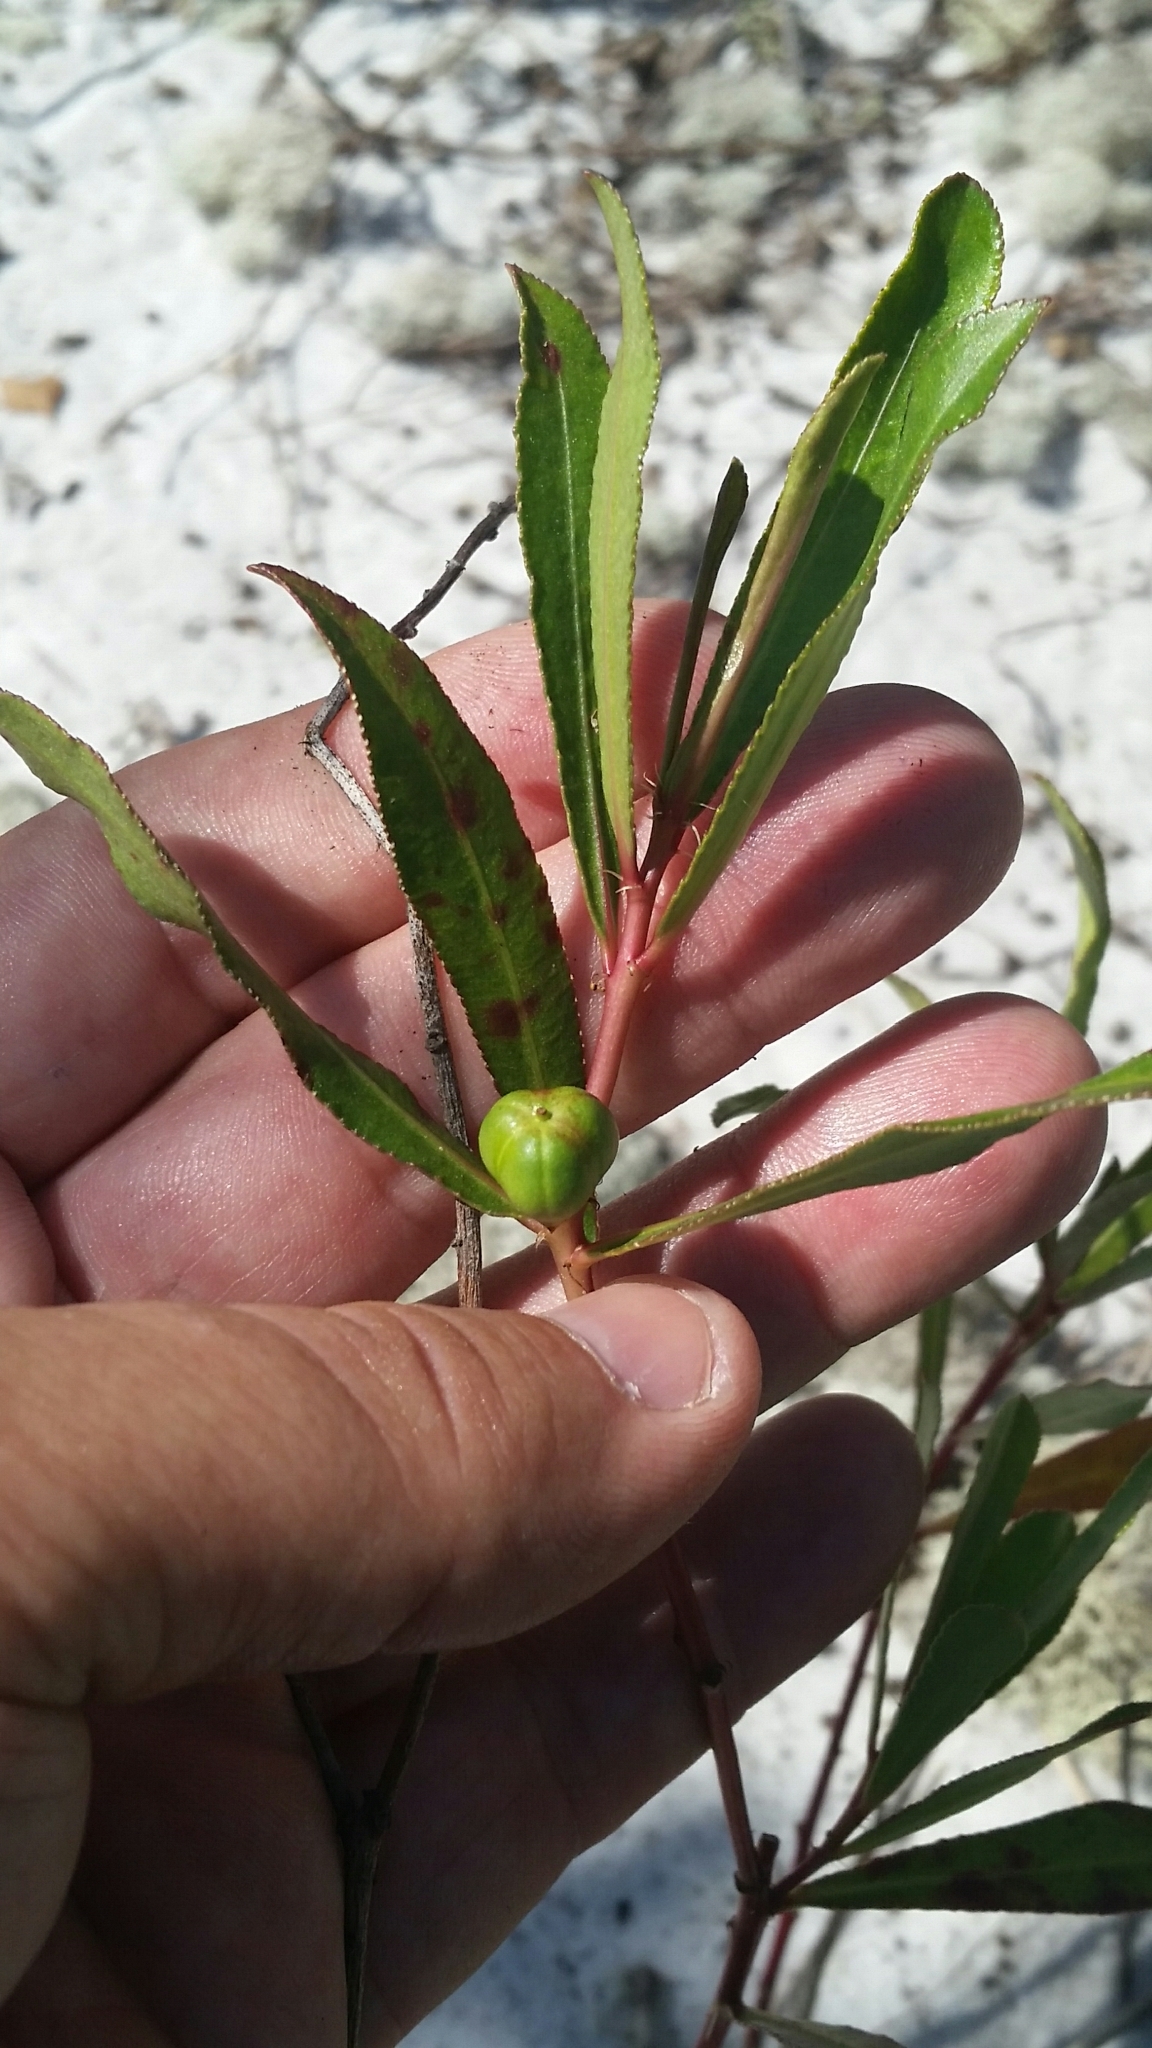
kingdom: Plantae
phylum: Tracheophyta
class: Magnoliopsida
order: Malpighiales
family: Euphorbiaceae
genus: Stillingia
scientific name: Stillingia sylvatica
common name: Queen's-delight
